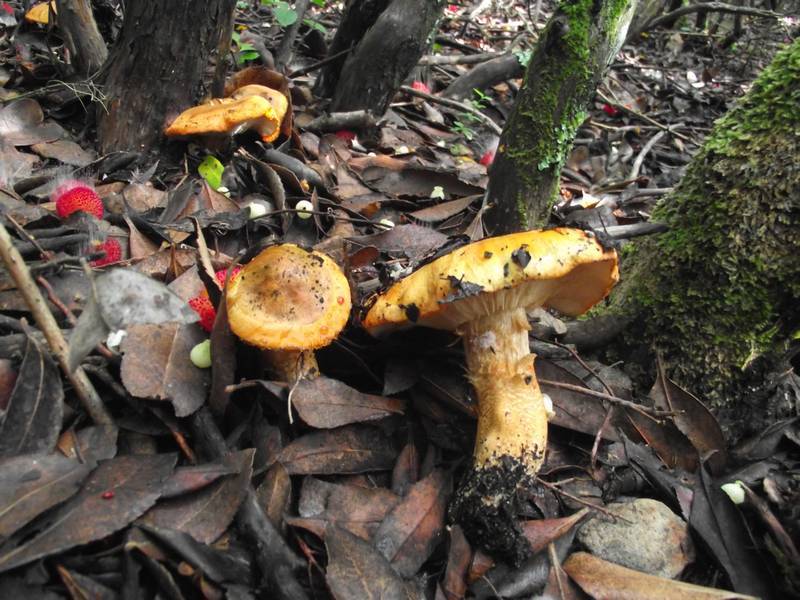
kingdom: Fungi
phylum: Basidiomycota
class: Agaricomycetes
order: Agaricales
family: Tricholomataceae
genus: Tricholoma
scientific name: Tricholoma aurantium
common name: Orange knight
